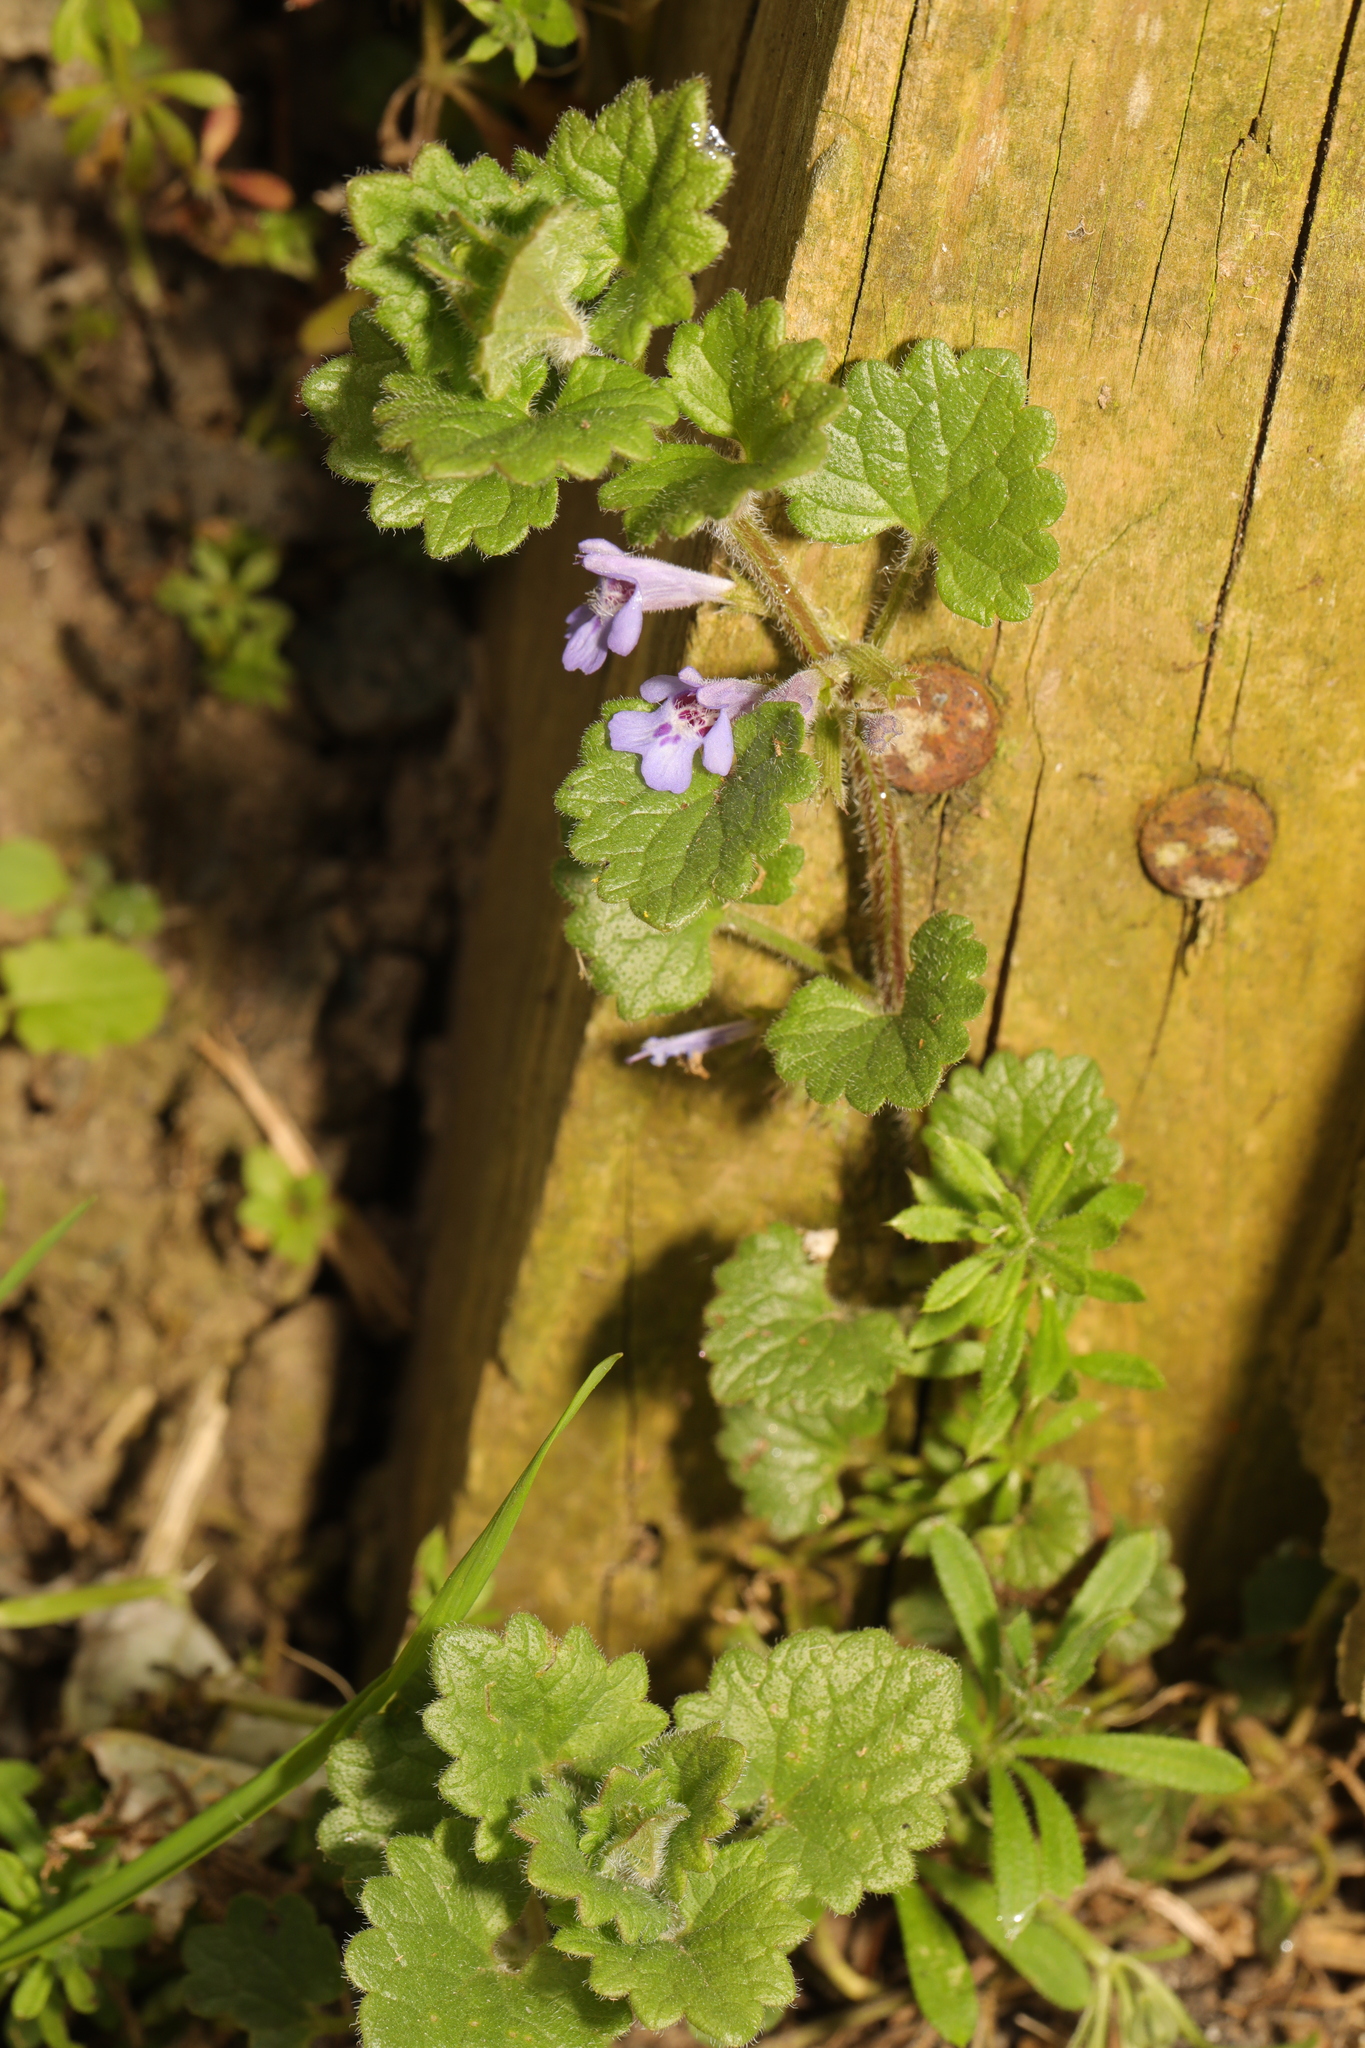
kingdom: Plantae
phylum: Tracheophyta
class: Magnoliopsida
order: Lamiales
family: Lamiaceae
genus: Glechoma
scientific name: Glechoma hederacea
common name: Ground ivy
